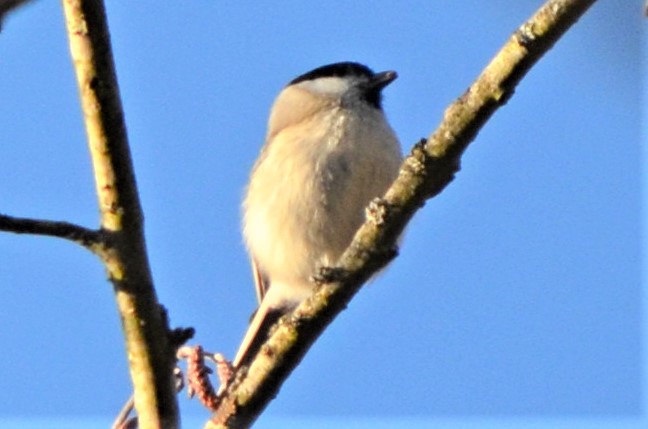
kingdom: Animalia
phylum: Chordata
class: Aves
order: Passeriformes
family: Paridae
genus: Poecile
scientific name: Poecile palustris
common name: Marsh tit
